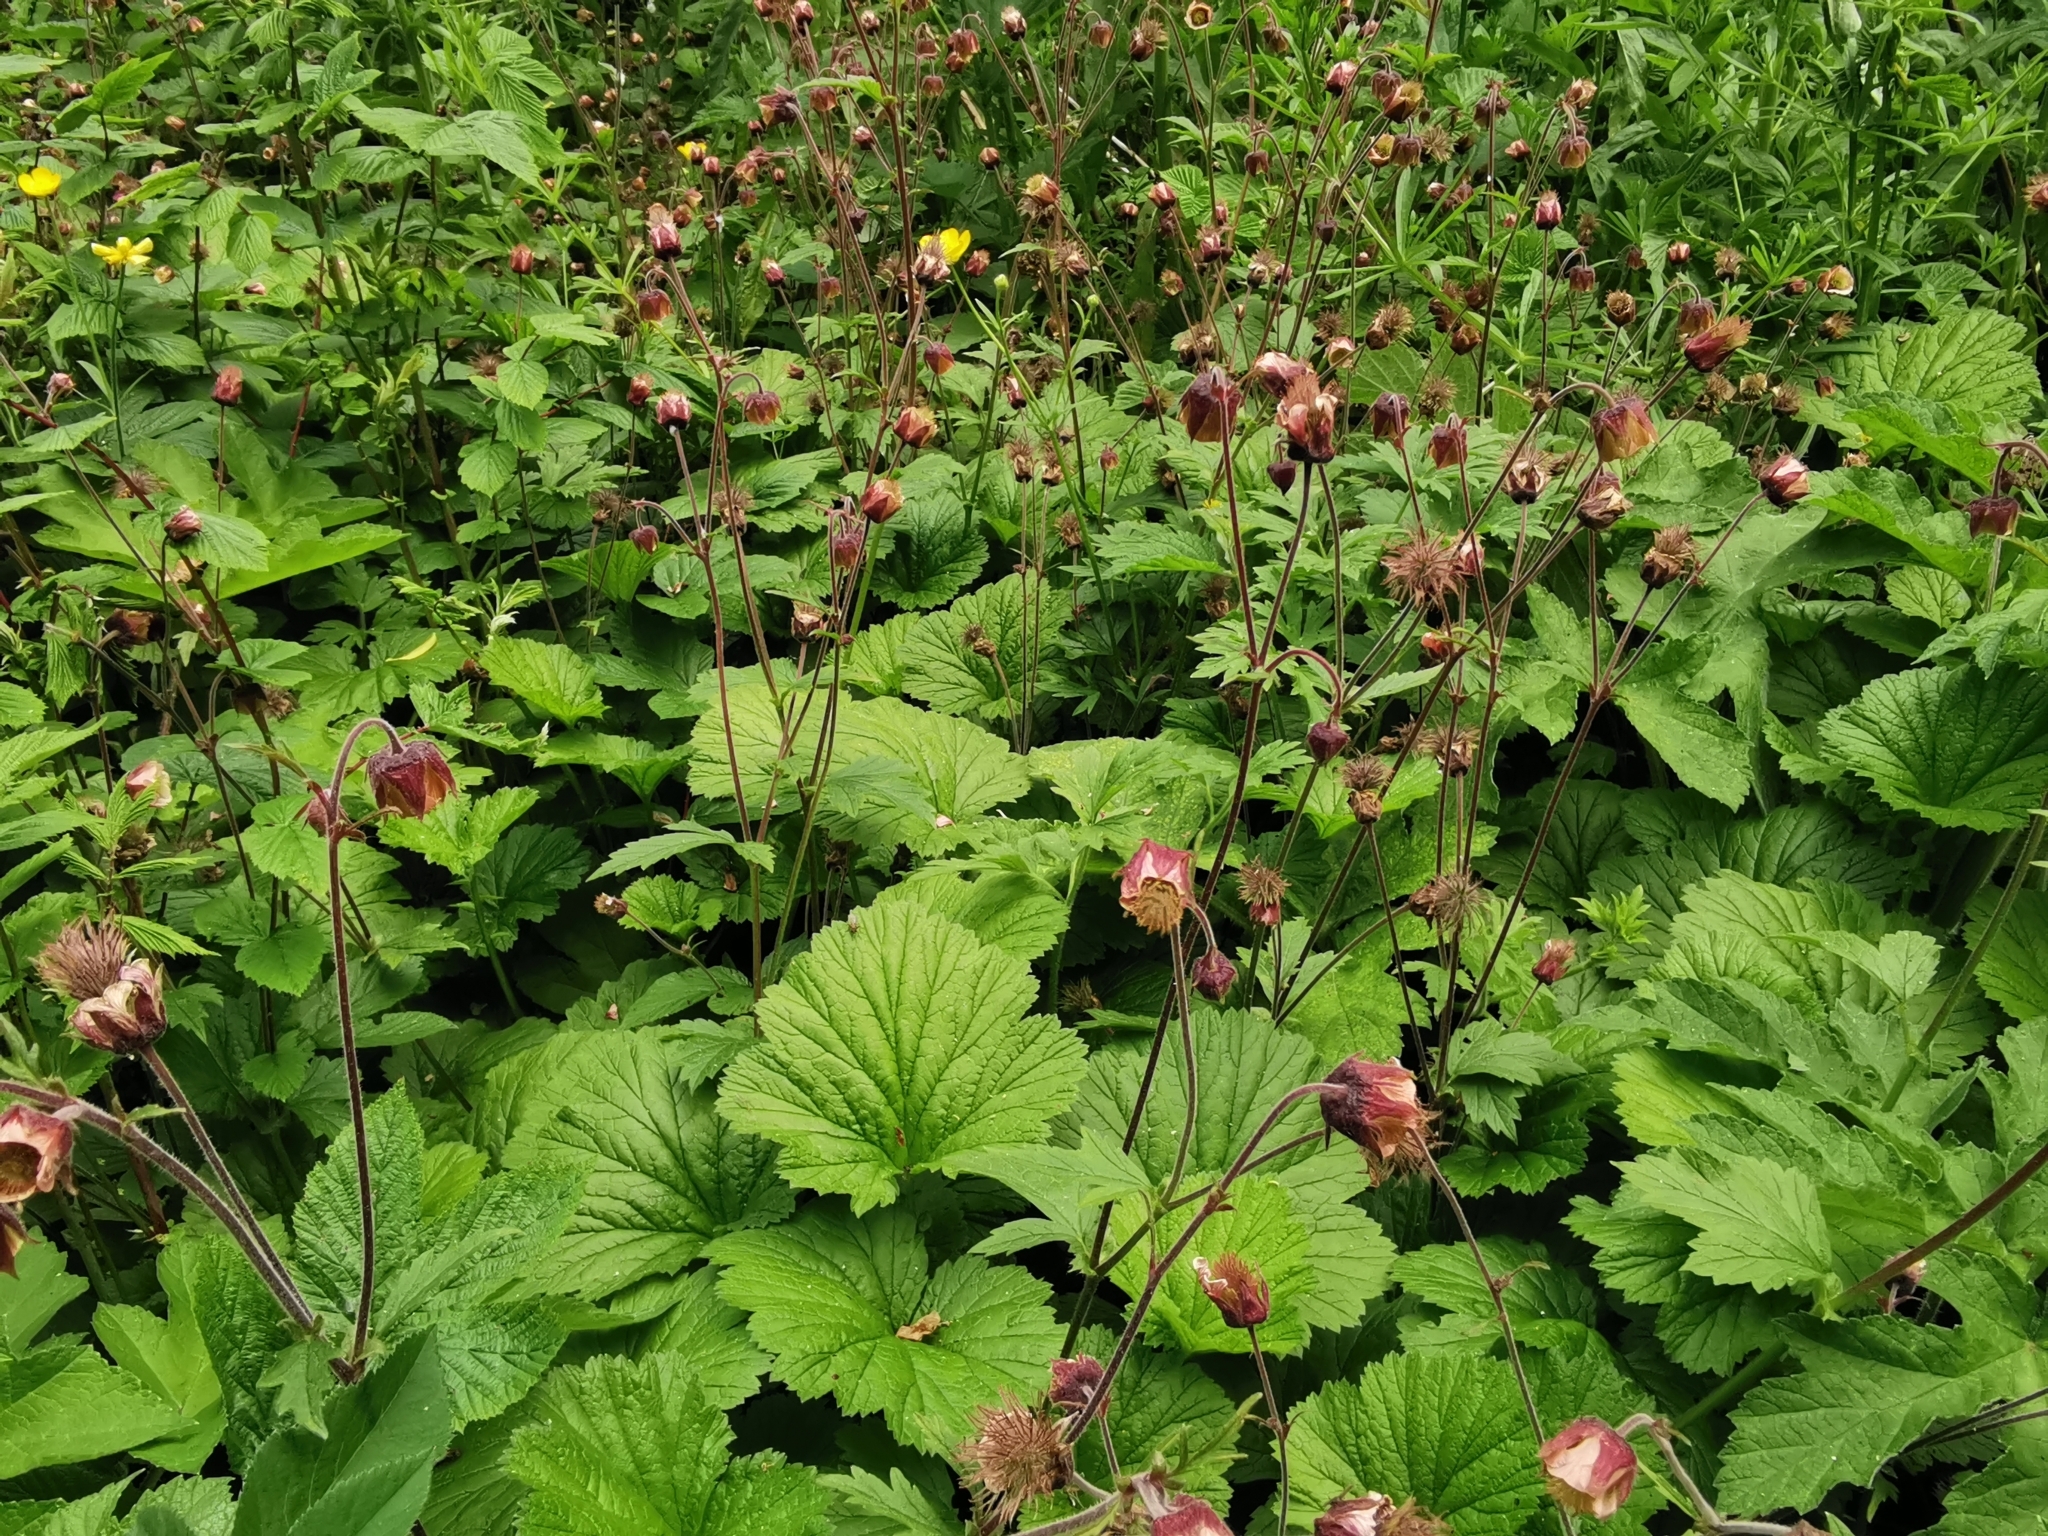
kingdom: Plantae
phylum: Tracheophyta
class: Magnoliopsida
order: Rosales
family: Rosaceae
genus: Geum
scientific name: Geum rivale
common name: Water avens
